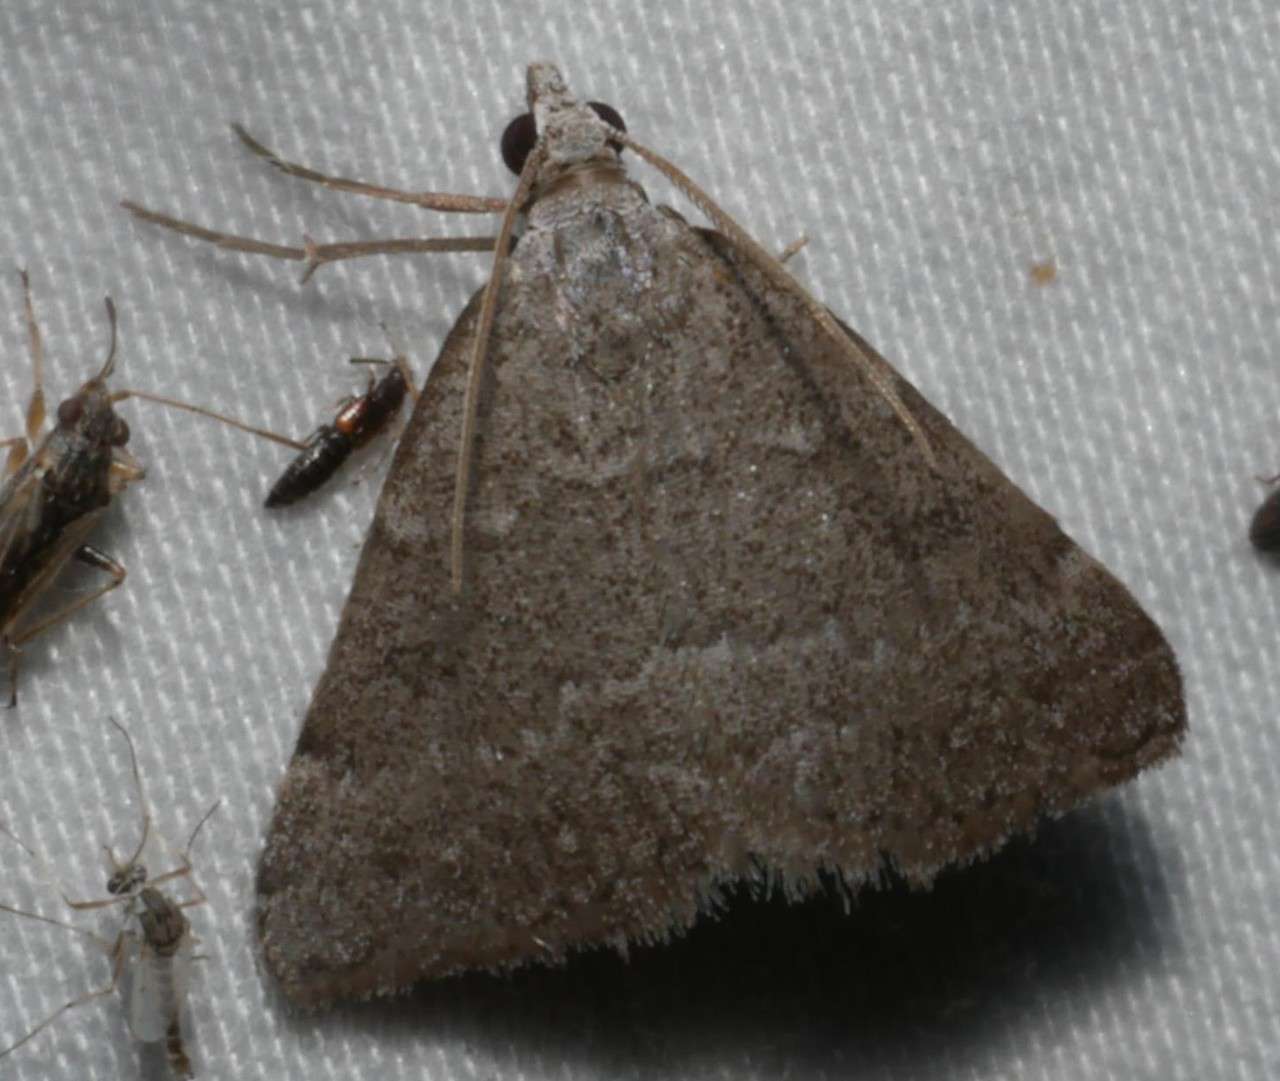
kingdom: Animalia
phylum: Arthropoda
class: Insecta
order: Lepidoptera
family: Geometridae
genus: Dichromodes
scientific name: Dichromodes indicataria
